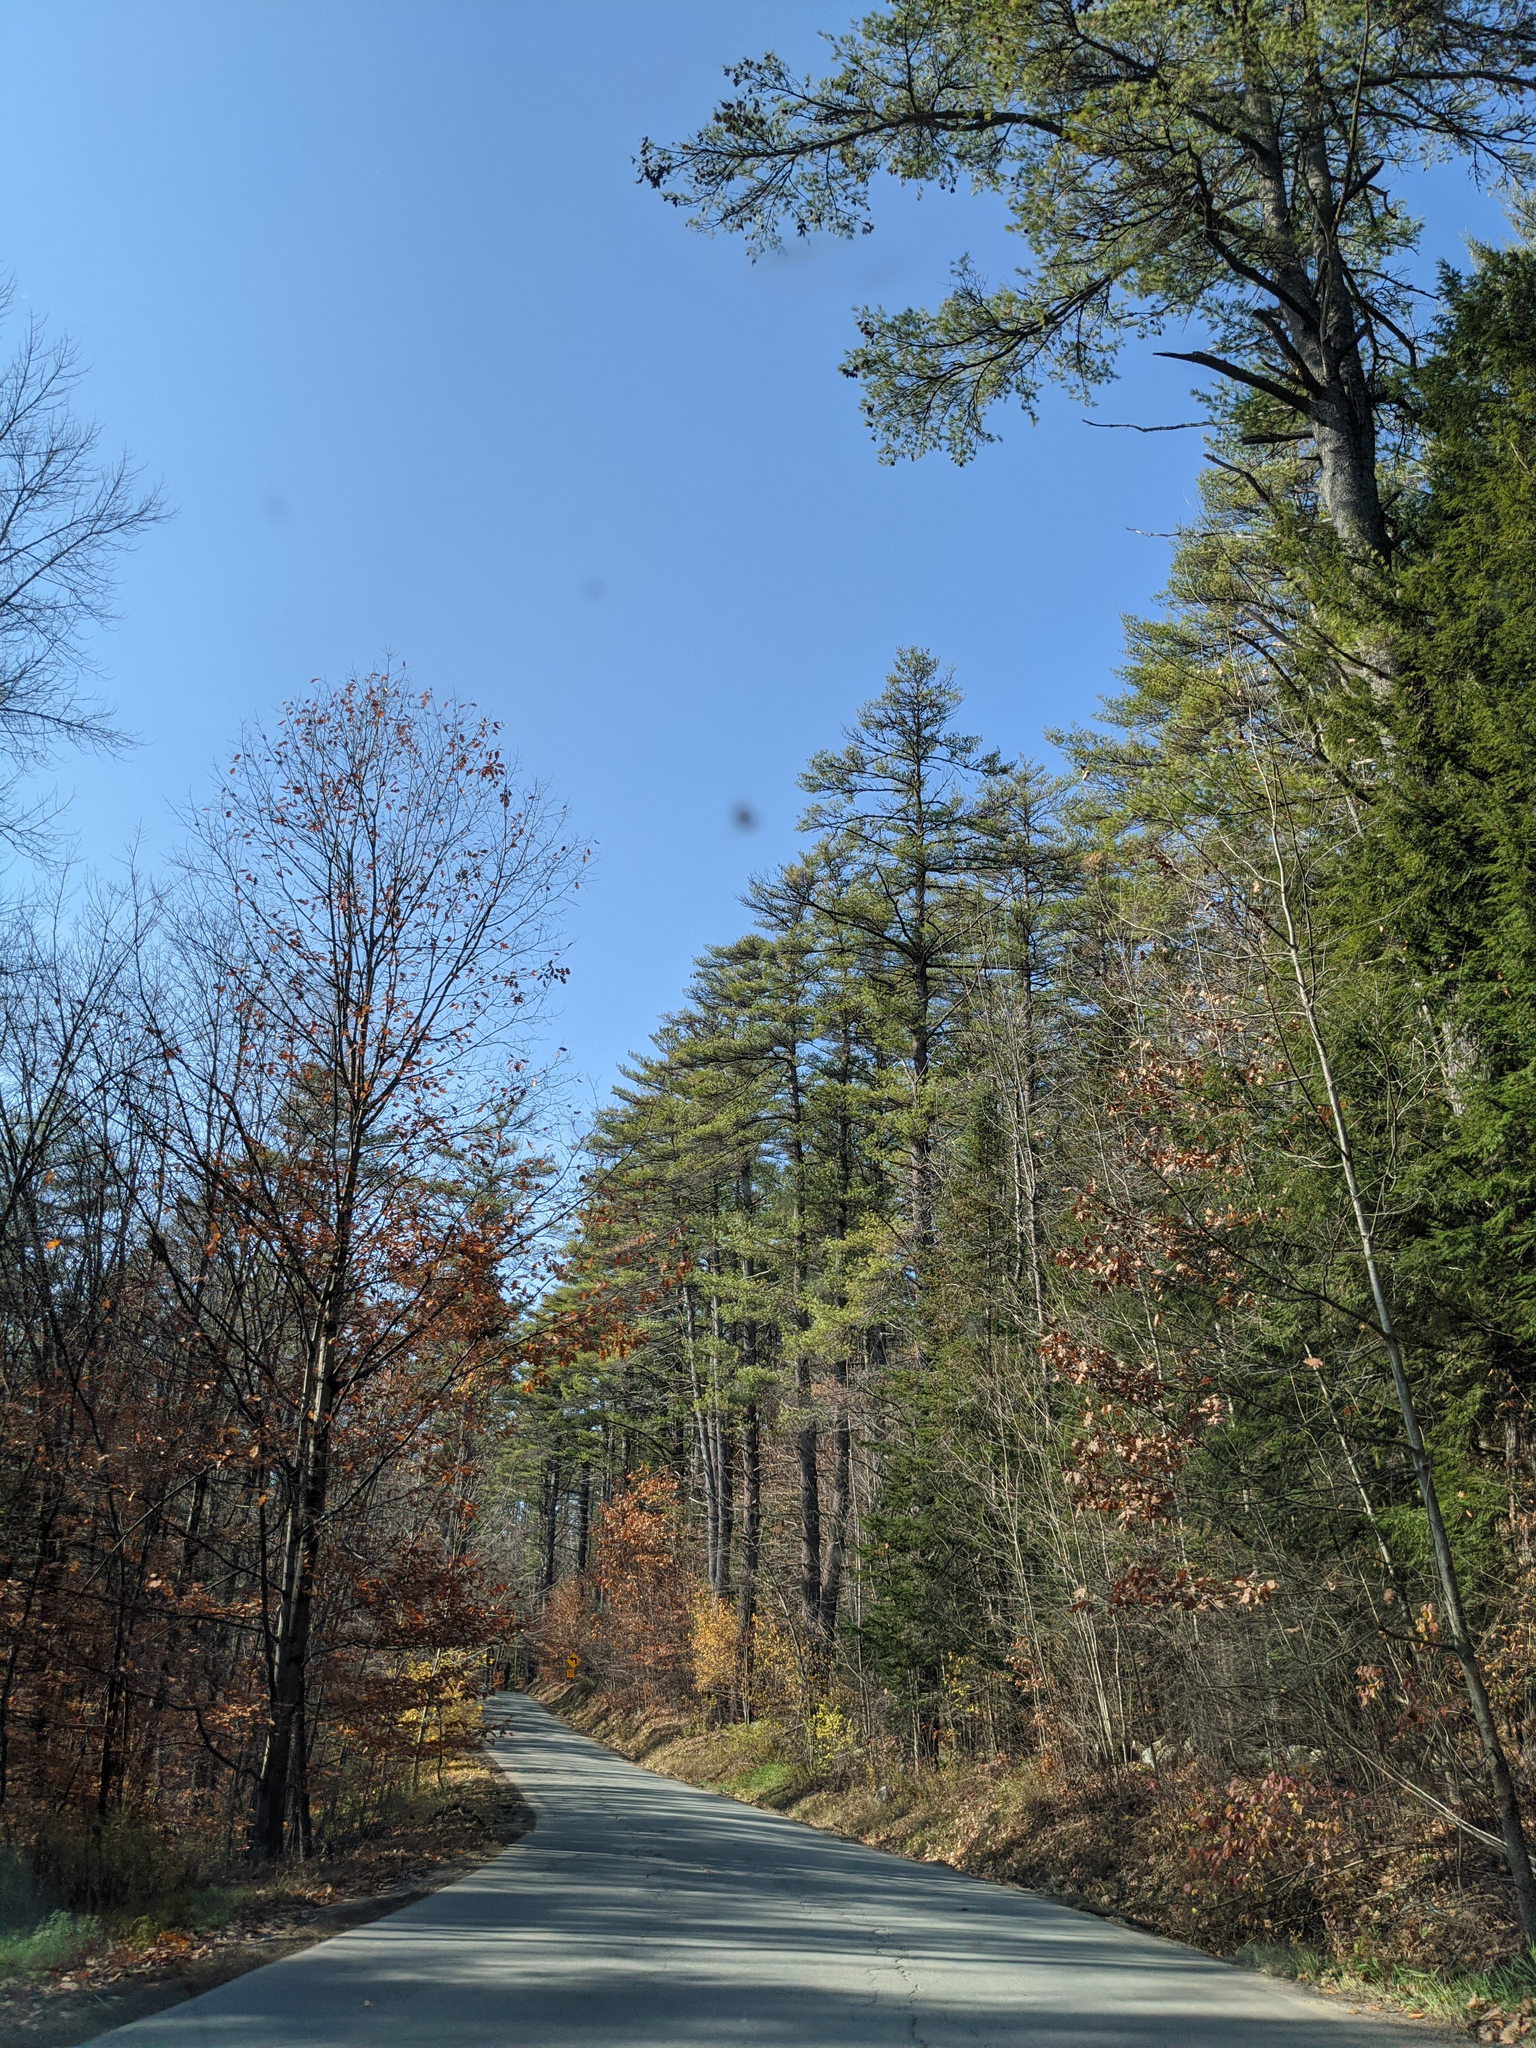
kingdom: Plantae
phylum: Tracheophyta
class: Pinopsida
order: Pinales
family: Pinaceae
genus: Pinus
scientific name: Pinus strobus
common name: Weymouth pine
